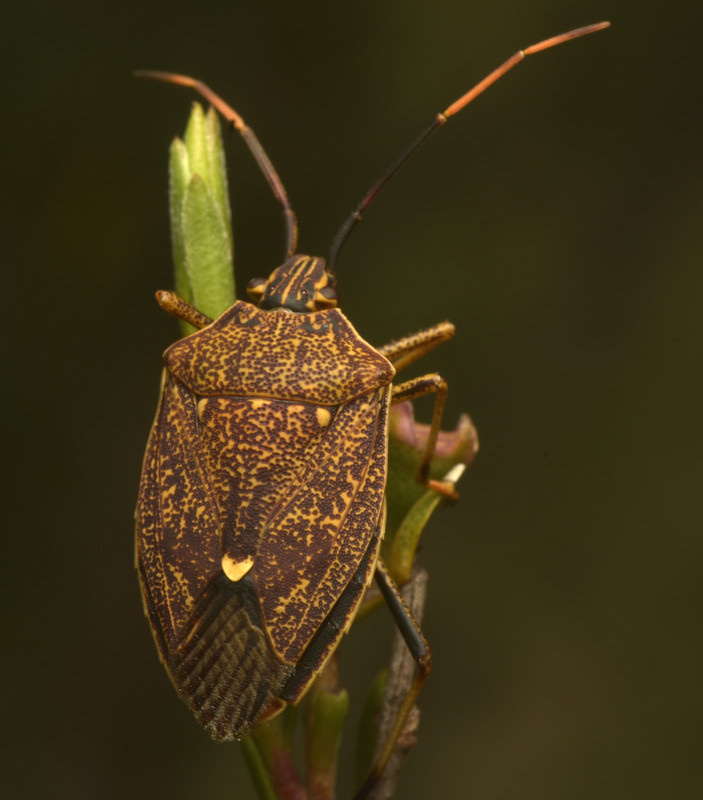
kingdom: Animalia
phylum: Arthropoda
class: Insecta
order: Hemiptera
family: Pentatomidae
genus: Poecilometis
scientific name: Poecilometis
